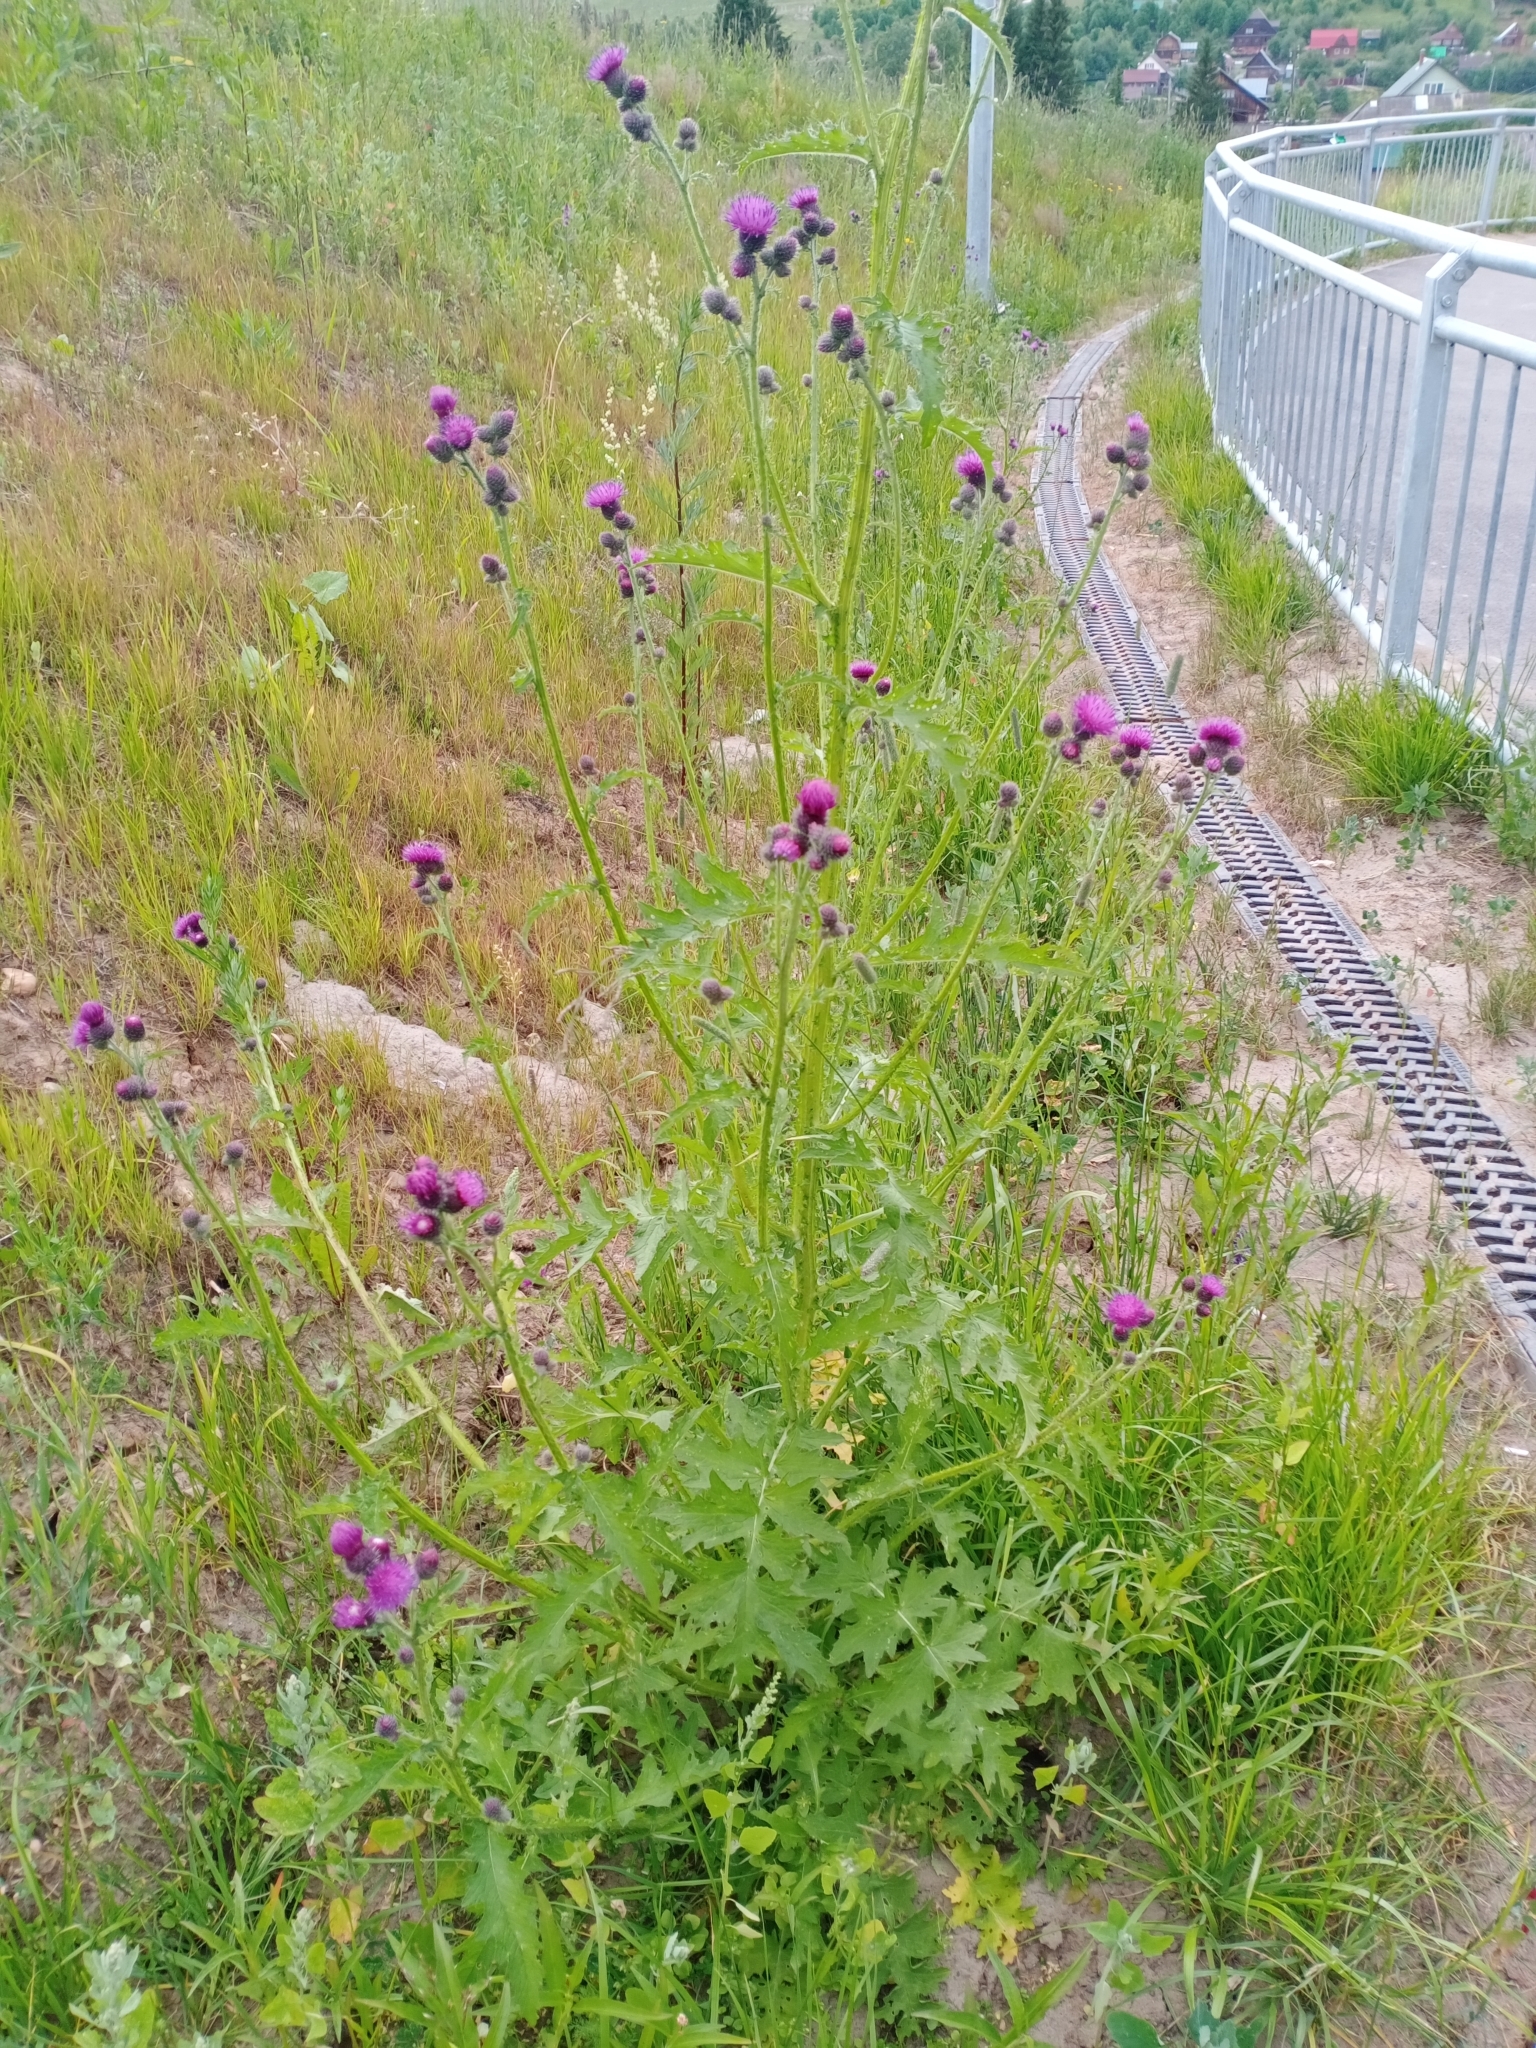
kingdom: Plantae
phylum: Tracheophyta
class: Magnoliopsida
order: Asterales
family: Asteraceae
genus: Carduus
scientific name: Carduus crispus
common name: Welted thistle
